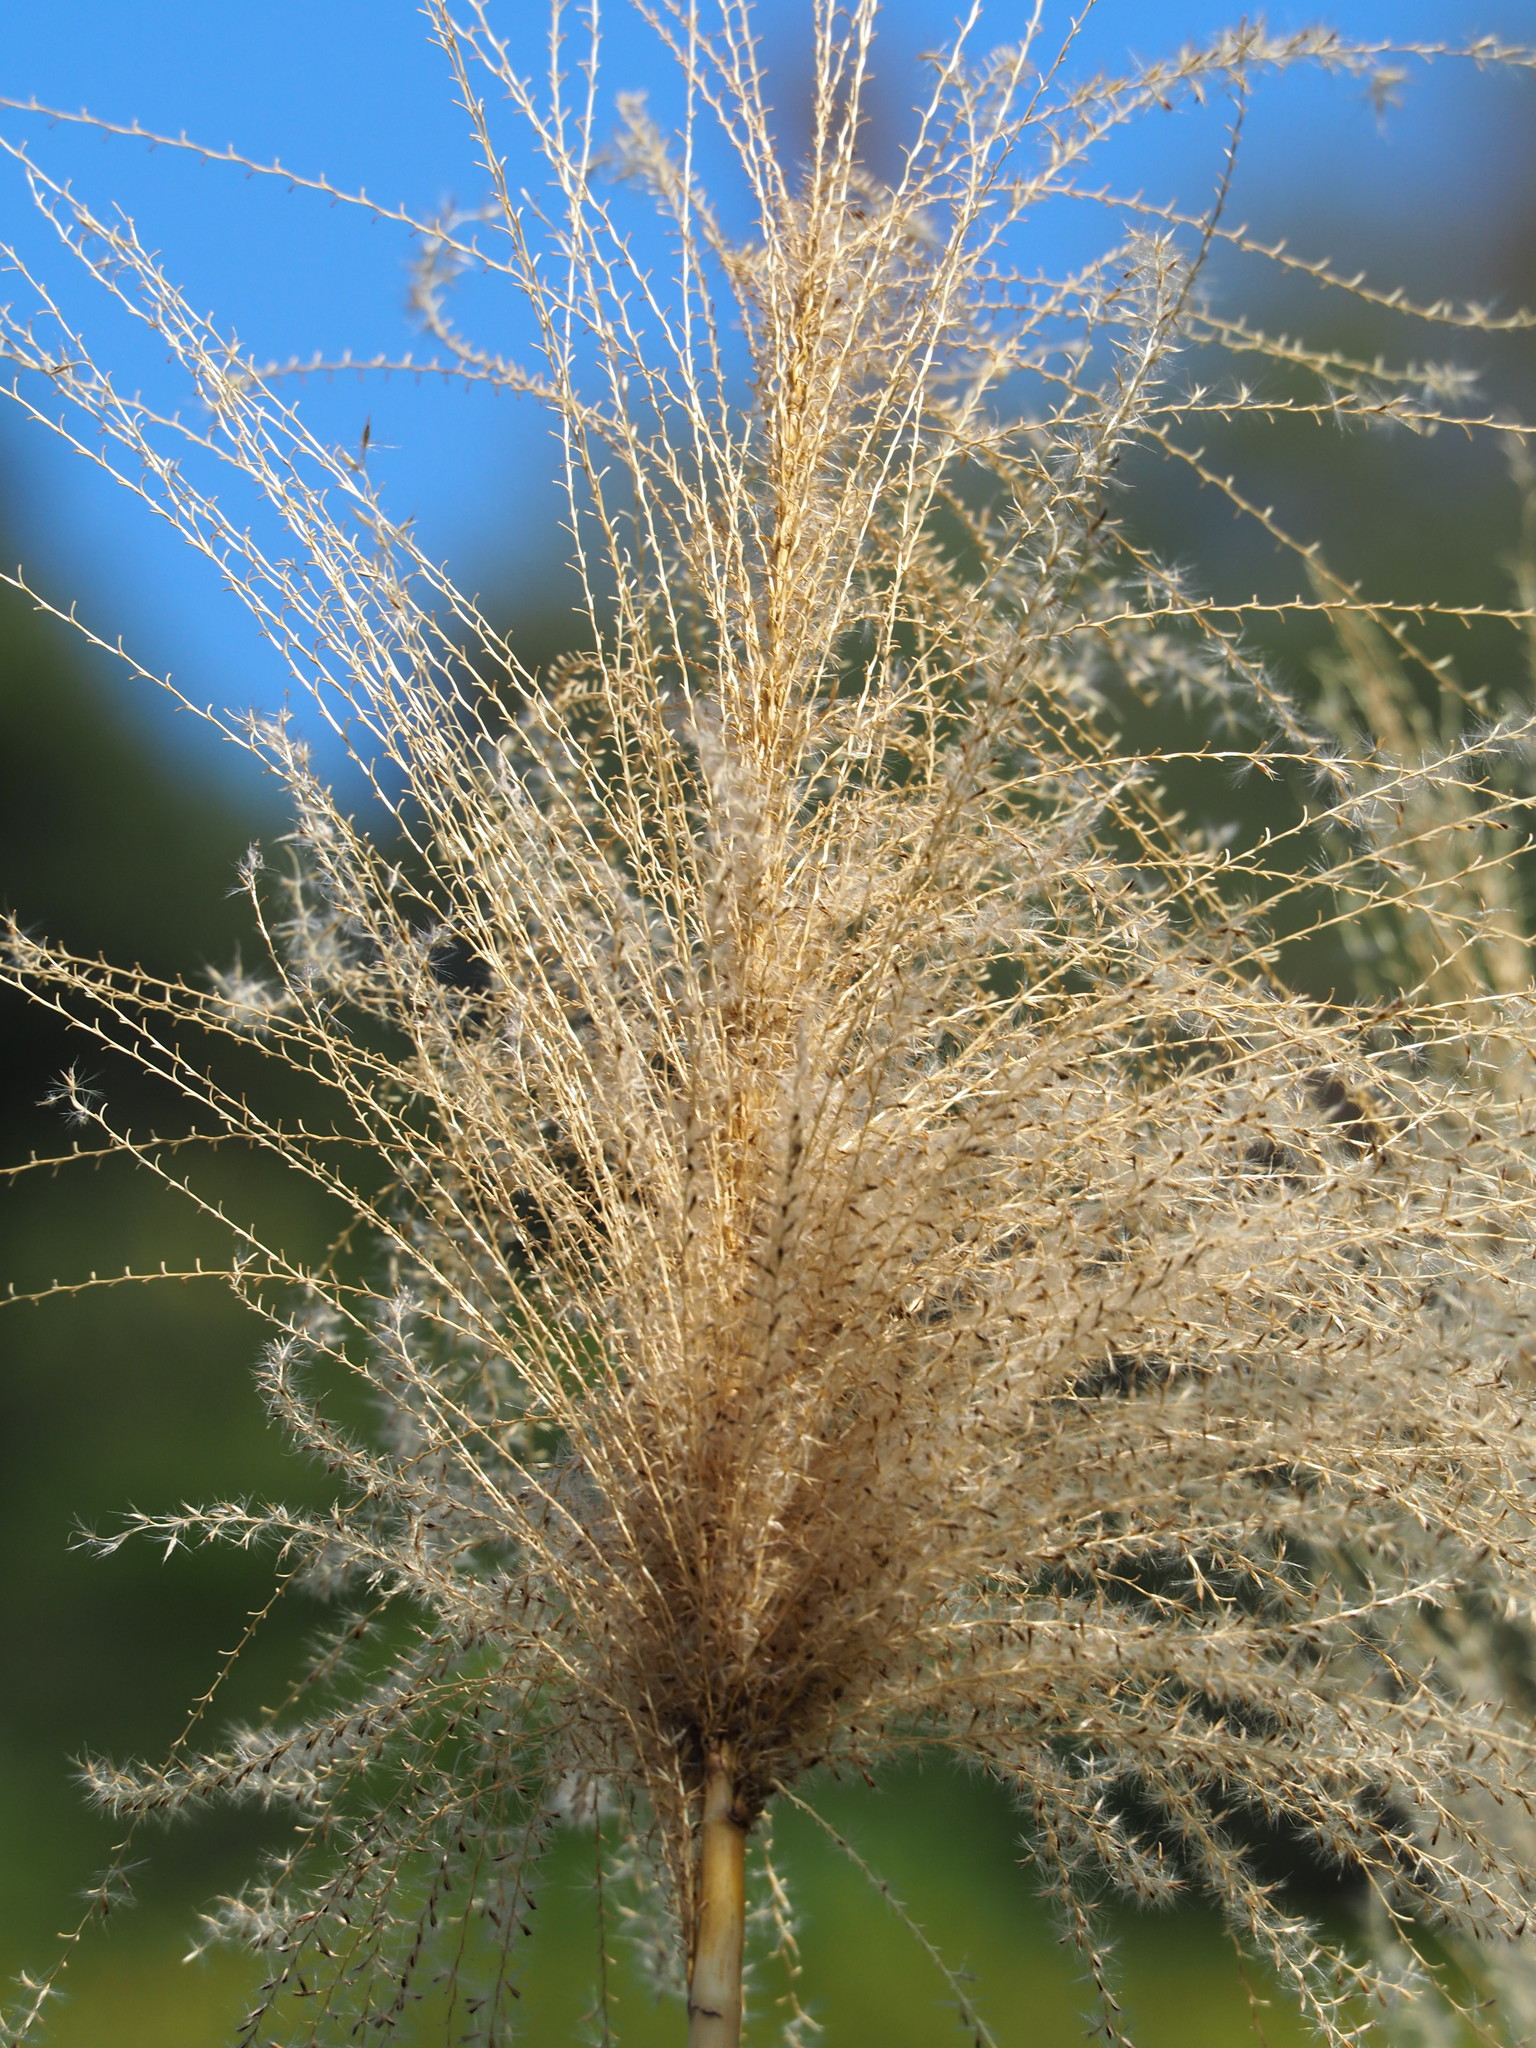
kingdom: Plantae
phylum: Tracheophyta
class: Liliopsida
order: Poales
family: Poaceae
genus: Miscanthus
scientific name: Miscanthus sinensis
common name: Chinese silvergrass
